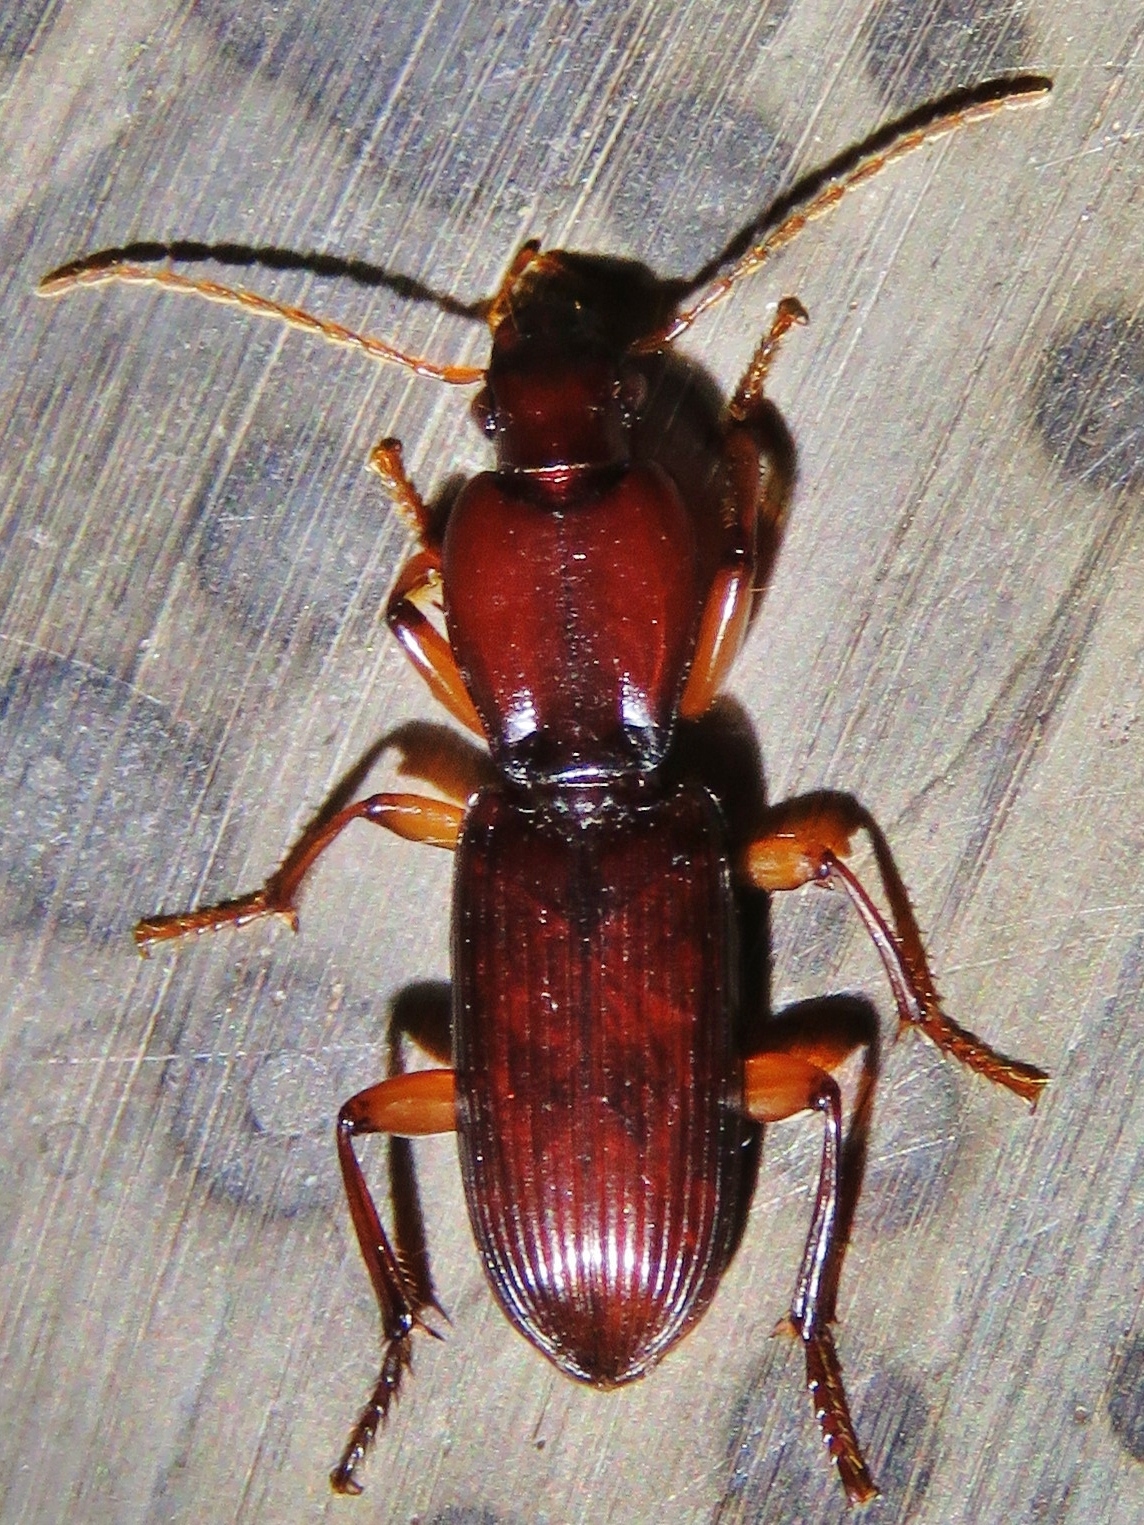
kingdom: Animalia
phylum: Arthropoda
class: Insecta
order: Coleoptera
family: Carabidae
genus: Stenomorphus
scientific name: Stenomorphus californicus
